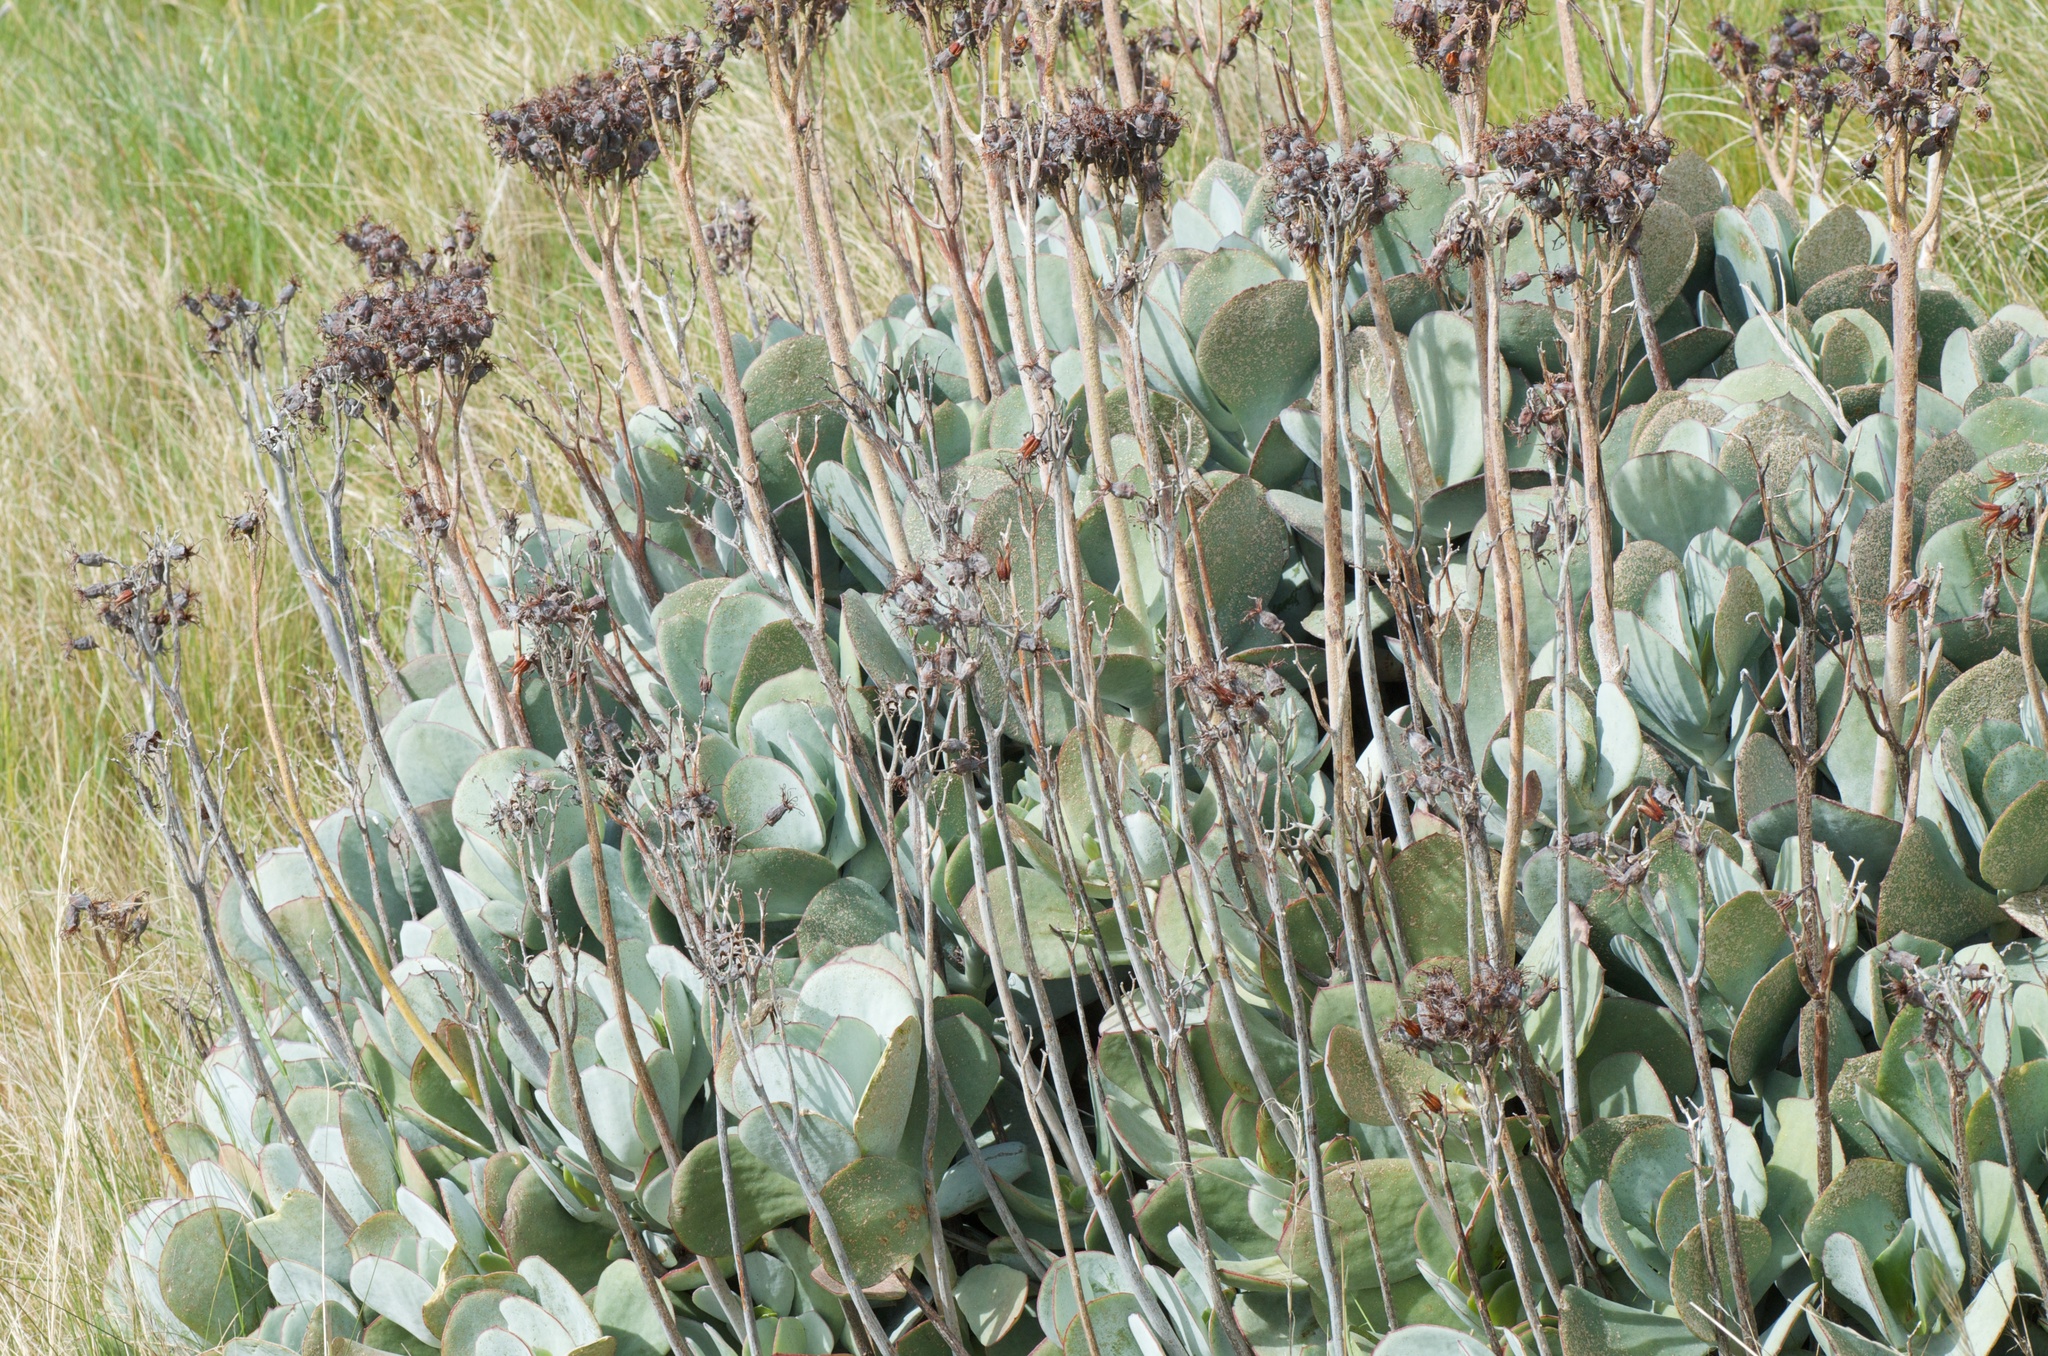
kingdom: Plantae
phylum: Tracheophyta
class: Magnoliopsida
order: Saxifragales
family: Crassulaceae
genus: Cotyledon
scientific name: Cotyledon orbiculata
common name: Pig's ear
